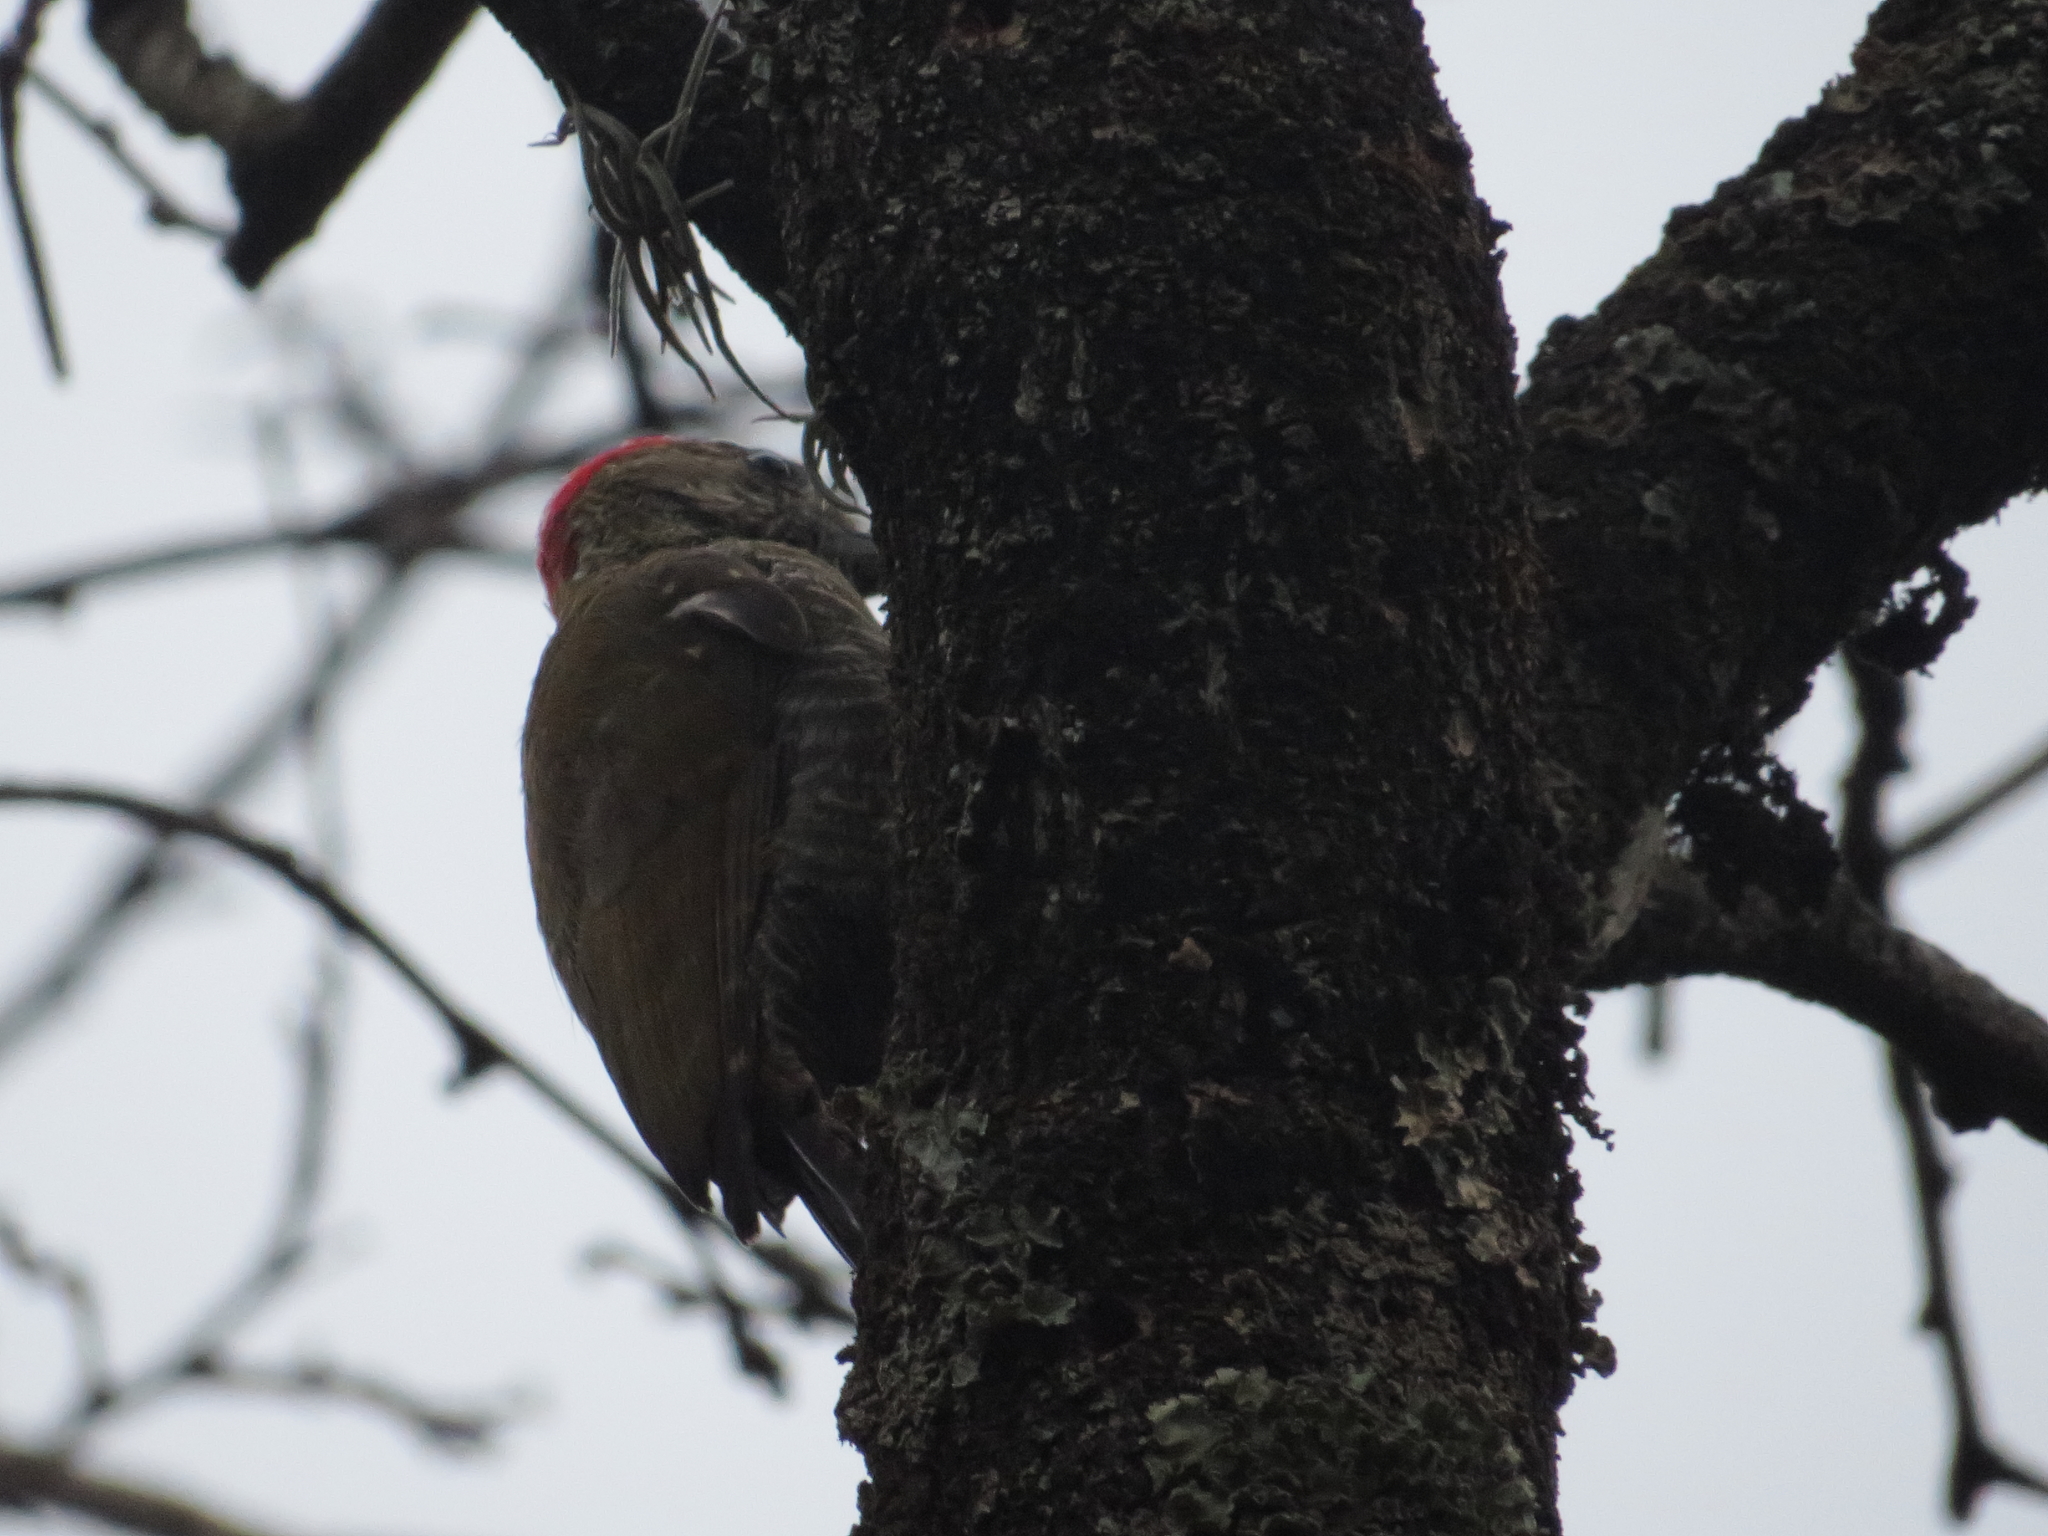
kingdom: Animalia
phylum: Chordata
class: Aves
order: Piciformes
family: Picidae
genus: Veniliornis
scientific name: Veniliornis passerinus
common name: Little woodpecker
